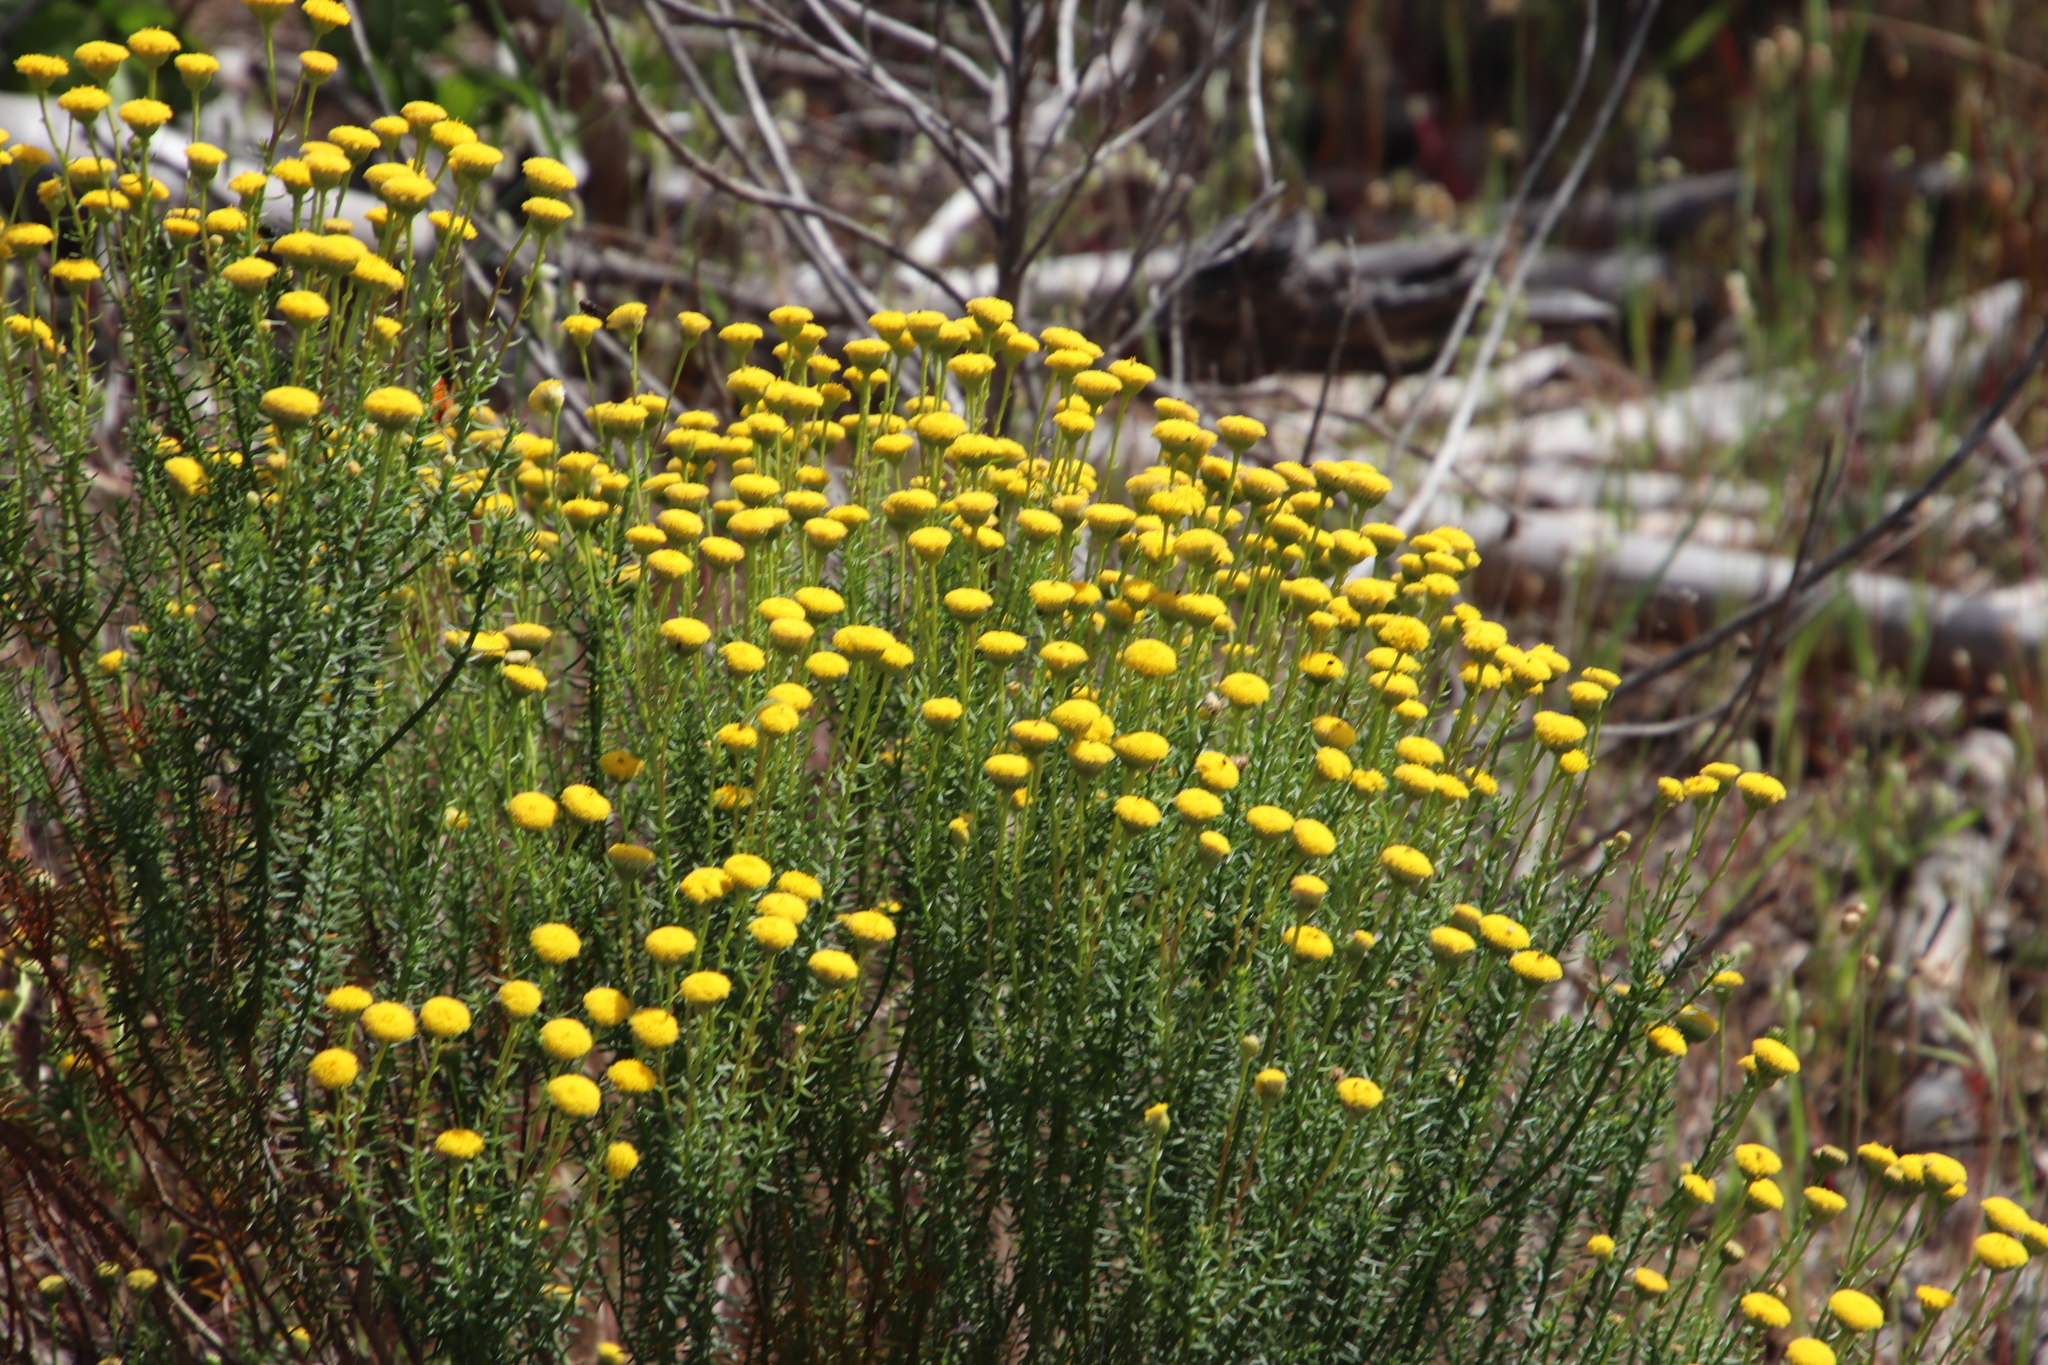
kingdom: Plantae
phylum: Tracheophyta
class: Magnoliopsida
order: Asterales
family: Asteraceae
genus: Chrysocoma
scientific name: Chrysocoma cernua
